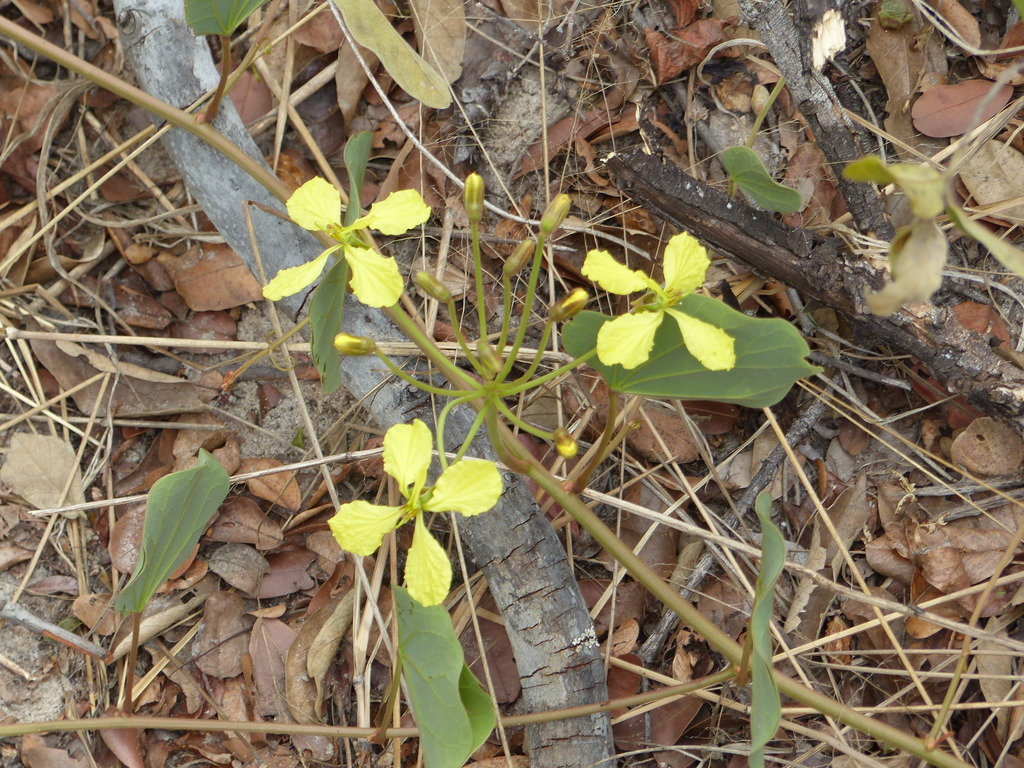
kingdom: Plantae
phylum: Tracheophyta
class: Magnoliopsida
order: Fabales
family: Fabaceae
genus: Tylosema
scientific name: Tylosema fassoglense
